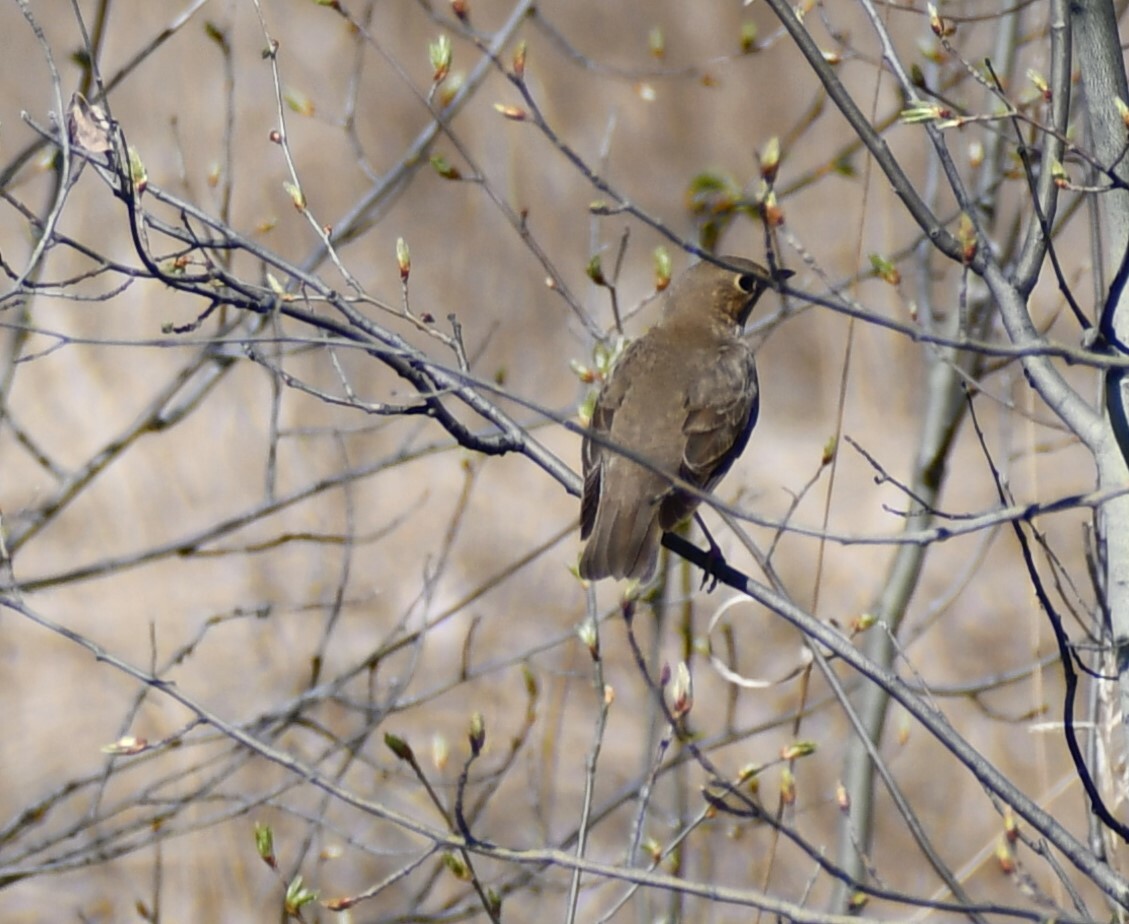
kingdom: Animalia
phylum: Chordata
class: Aves
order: Passeriformes
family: Turdidae
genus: Catharus
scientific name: Catharus ustulatus
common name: Swainson's thrush
